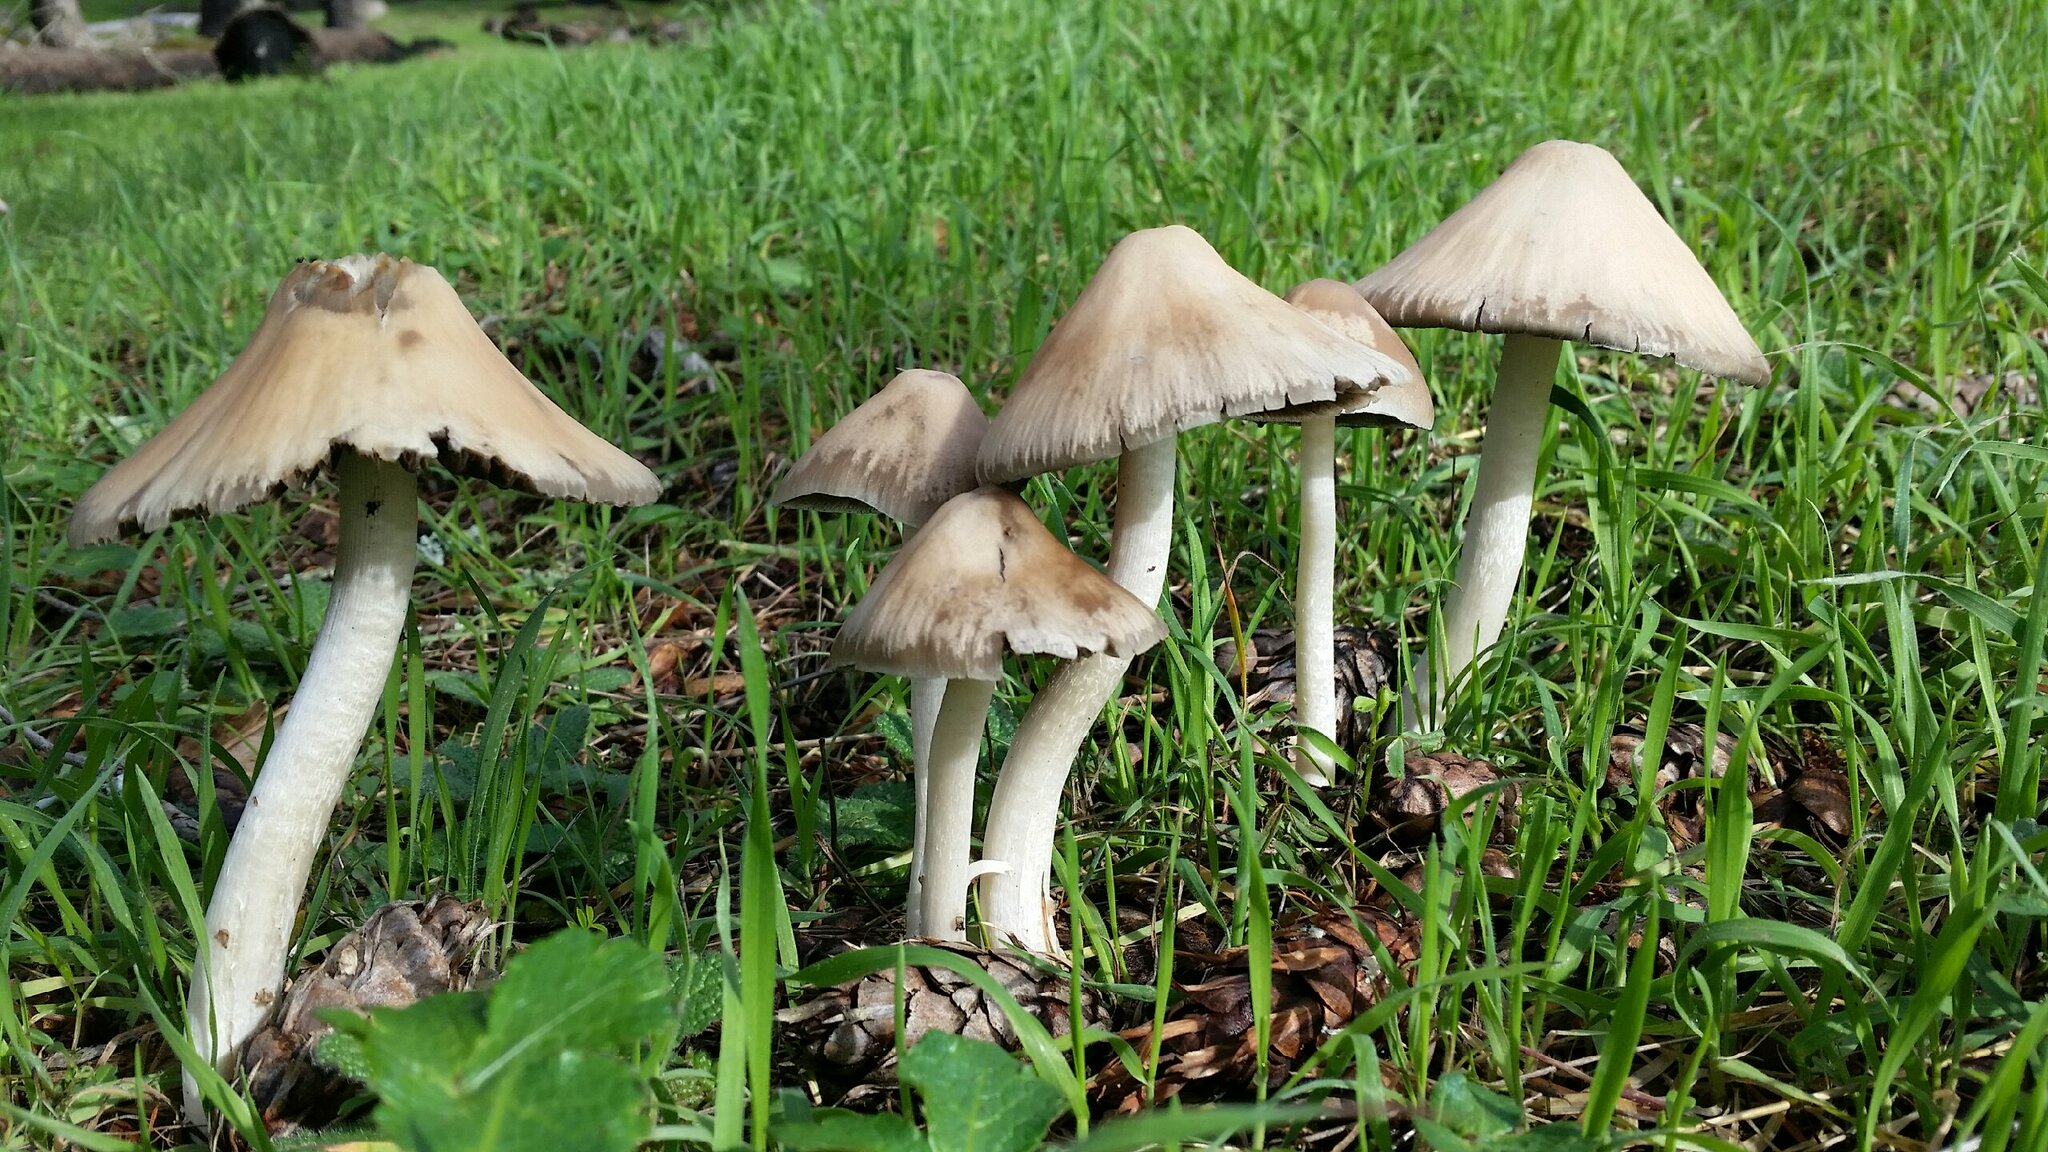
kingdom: Fungi
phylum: Basidiomycota
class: Agaricomycetes
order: Agaricales
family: Psathyrellaceae
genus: Psathyrella
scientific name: Psathyrella longipes
